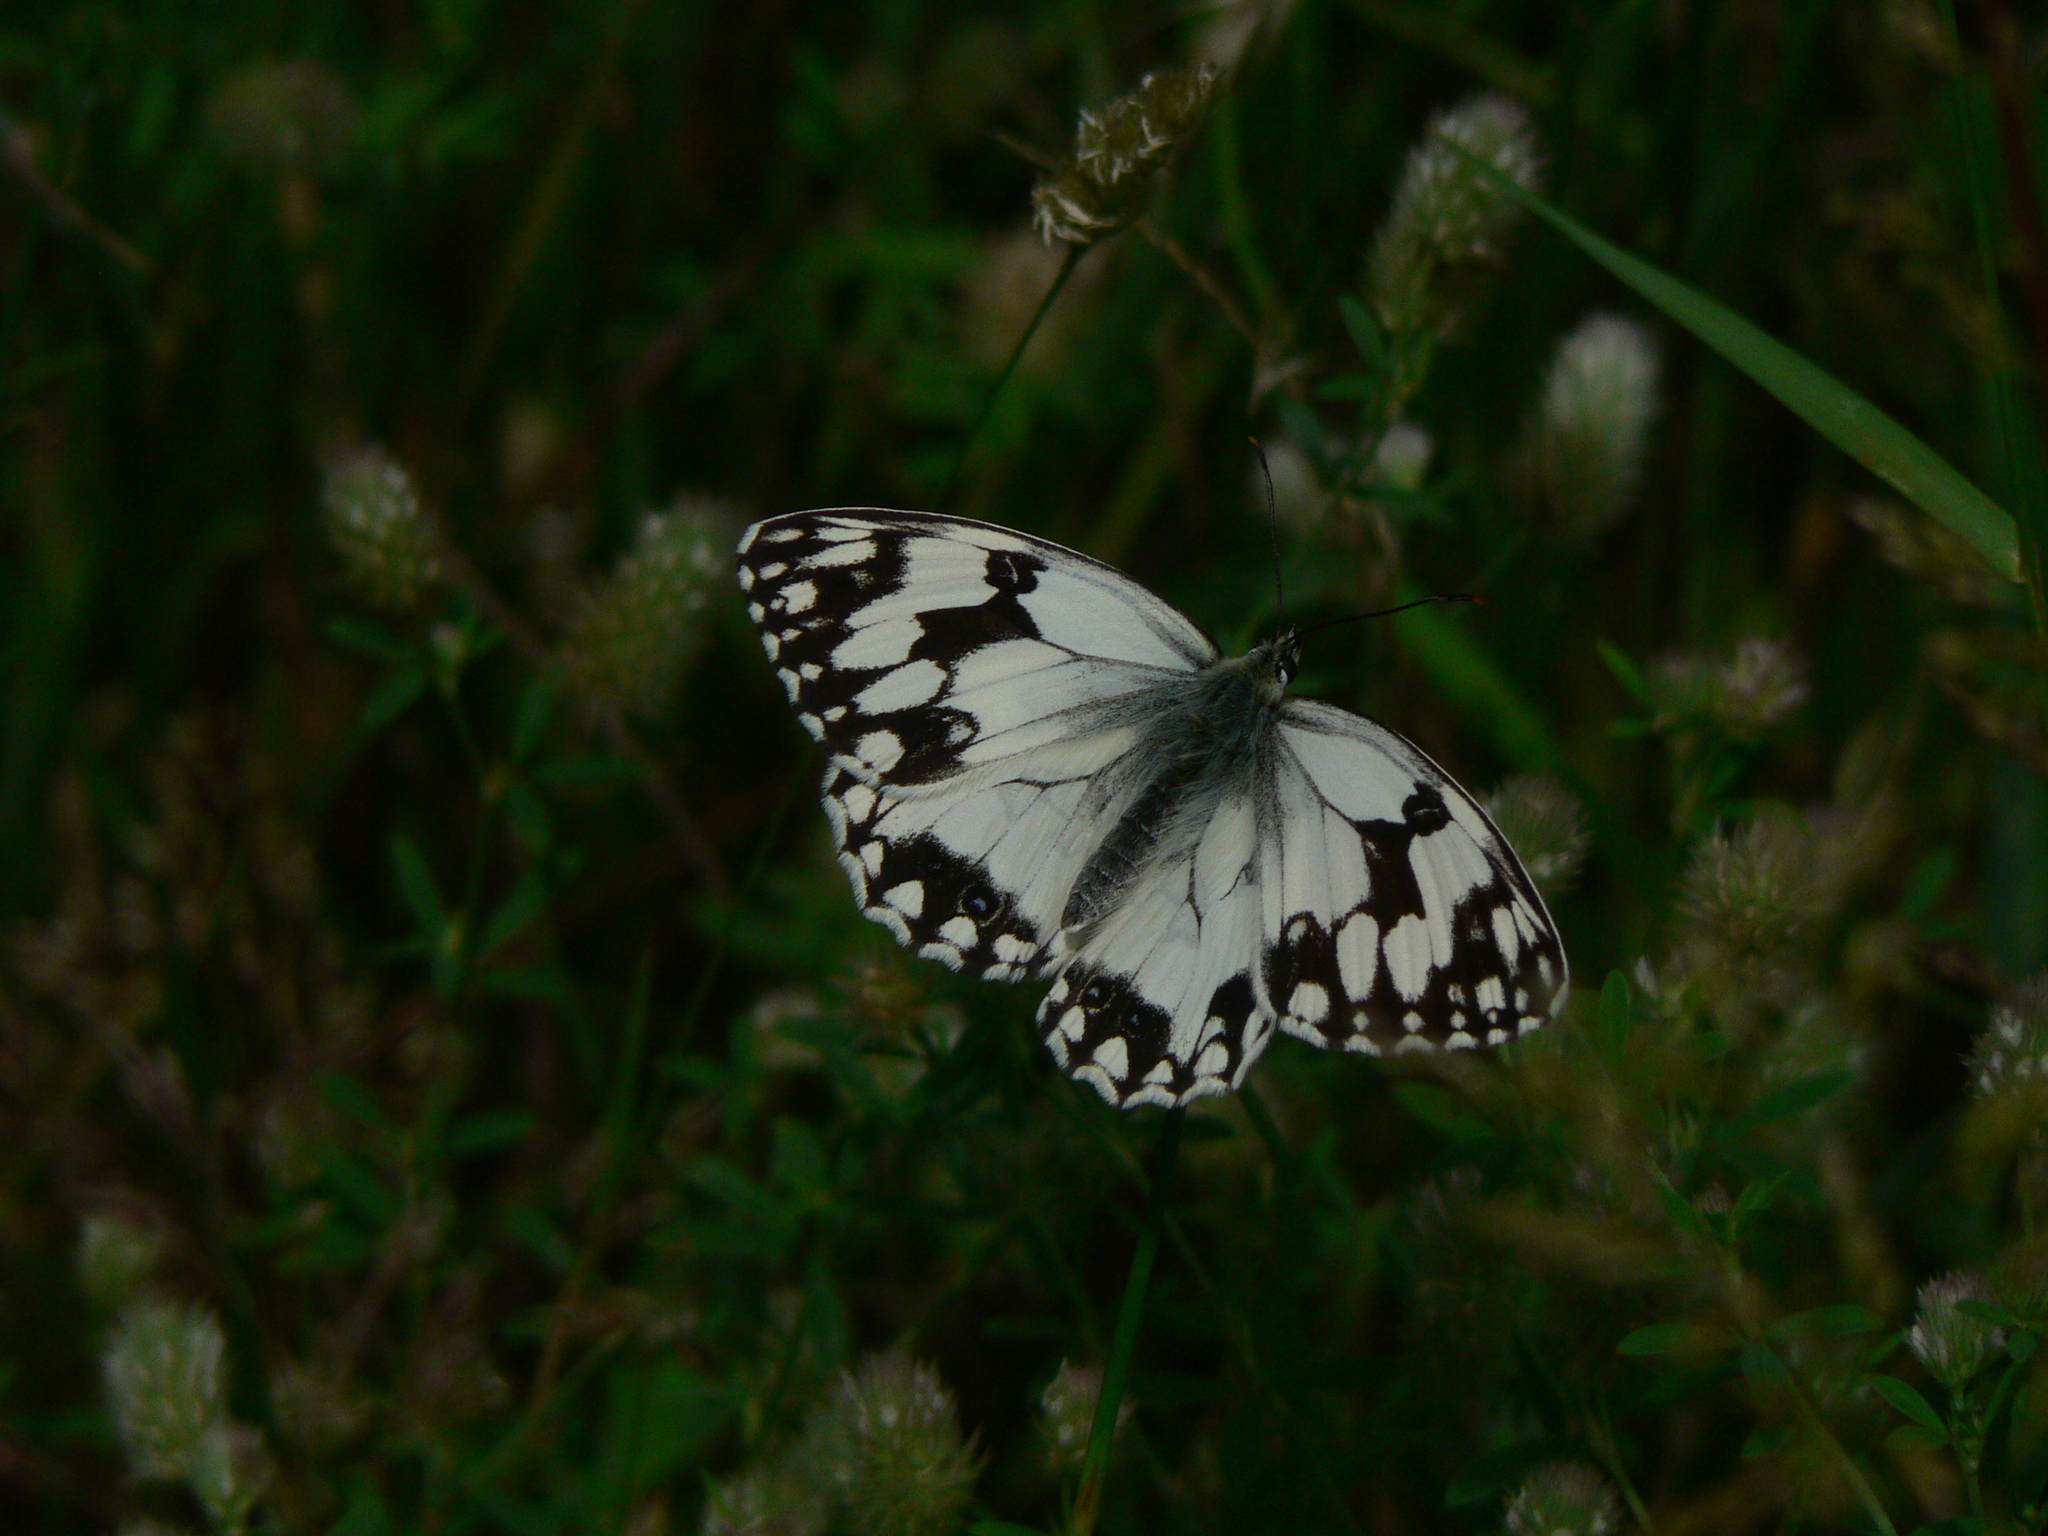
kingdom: Animalia
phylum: Arthropoda
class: Insecta
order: Lepidoptera
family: Nymphalidae
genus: Melanargia
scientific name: Melanargia lachesis
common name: Iberian marbled white
